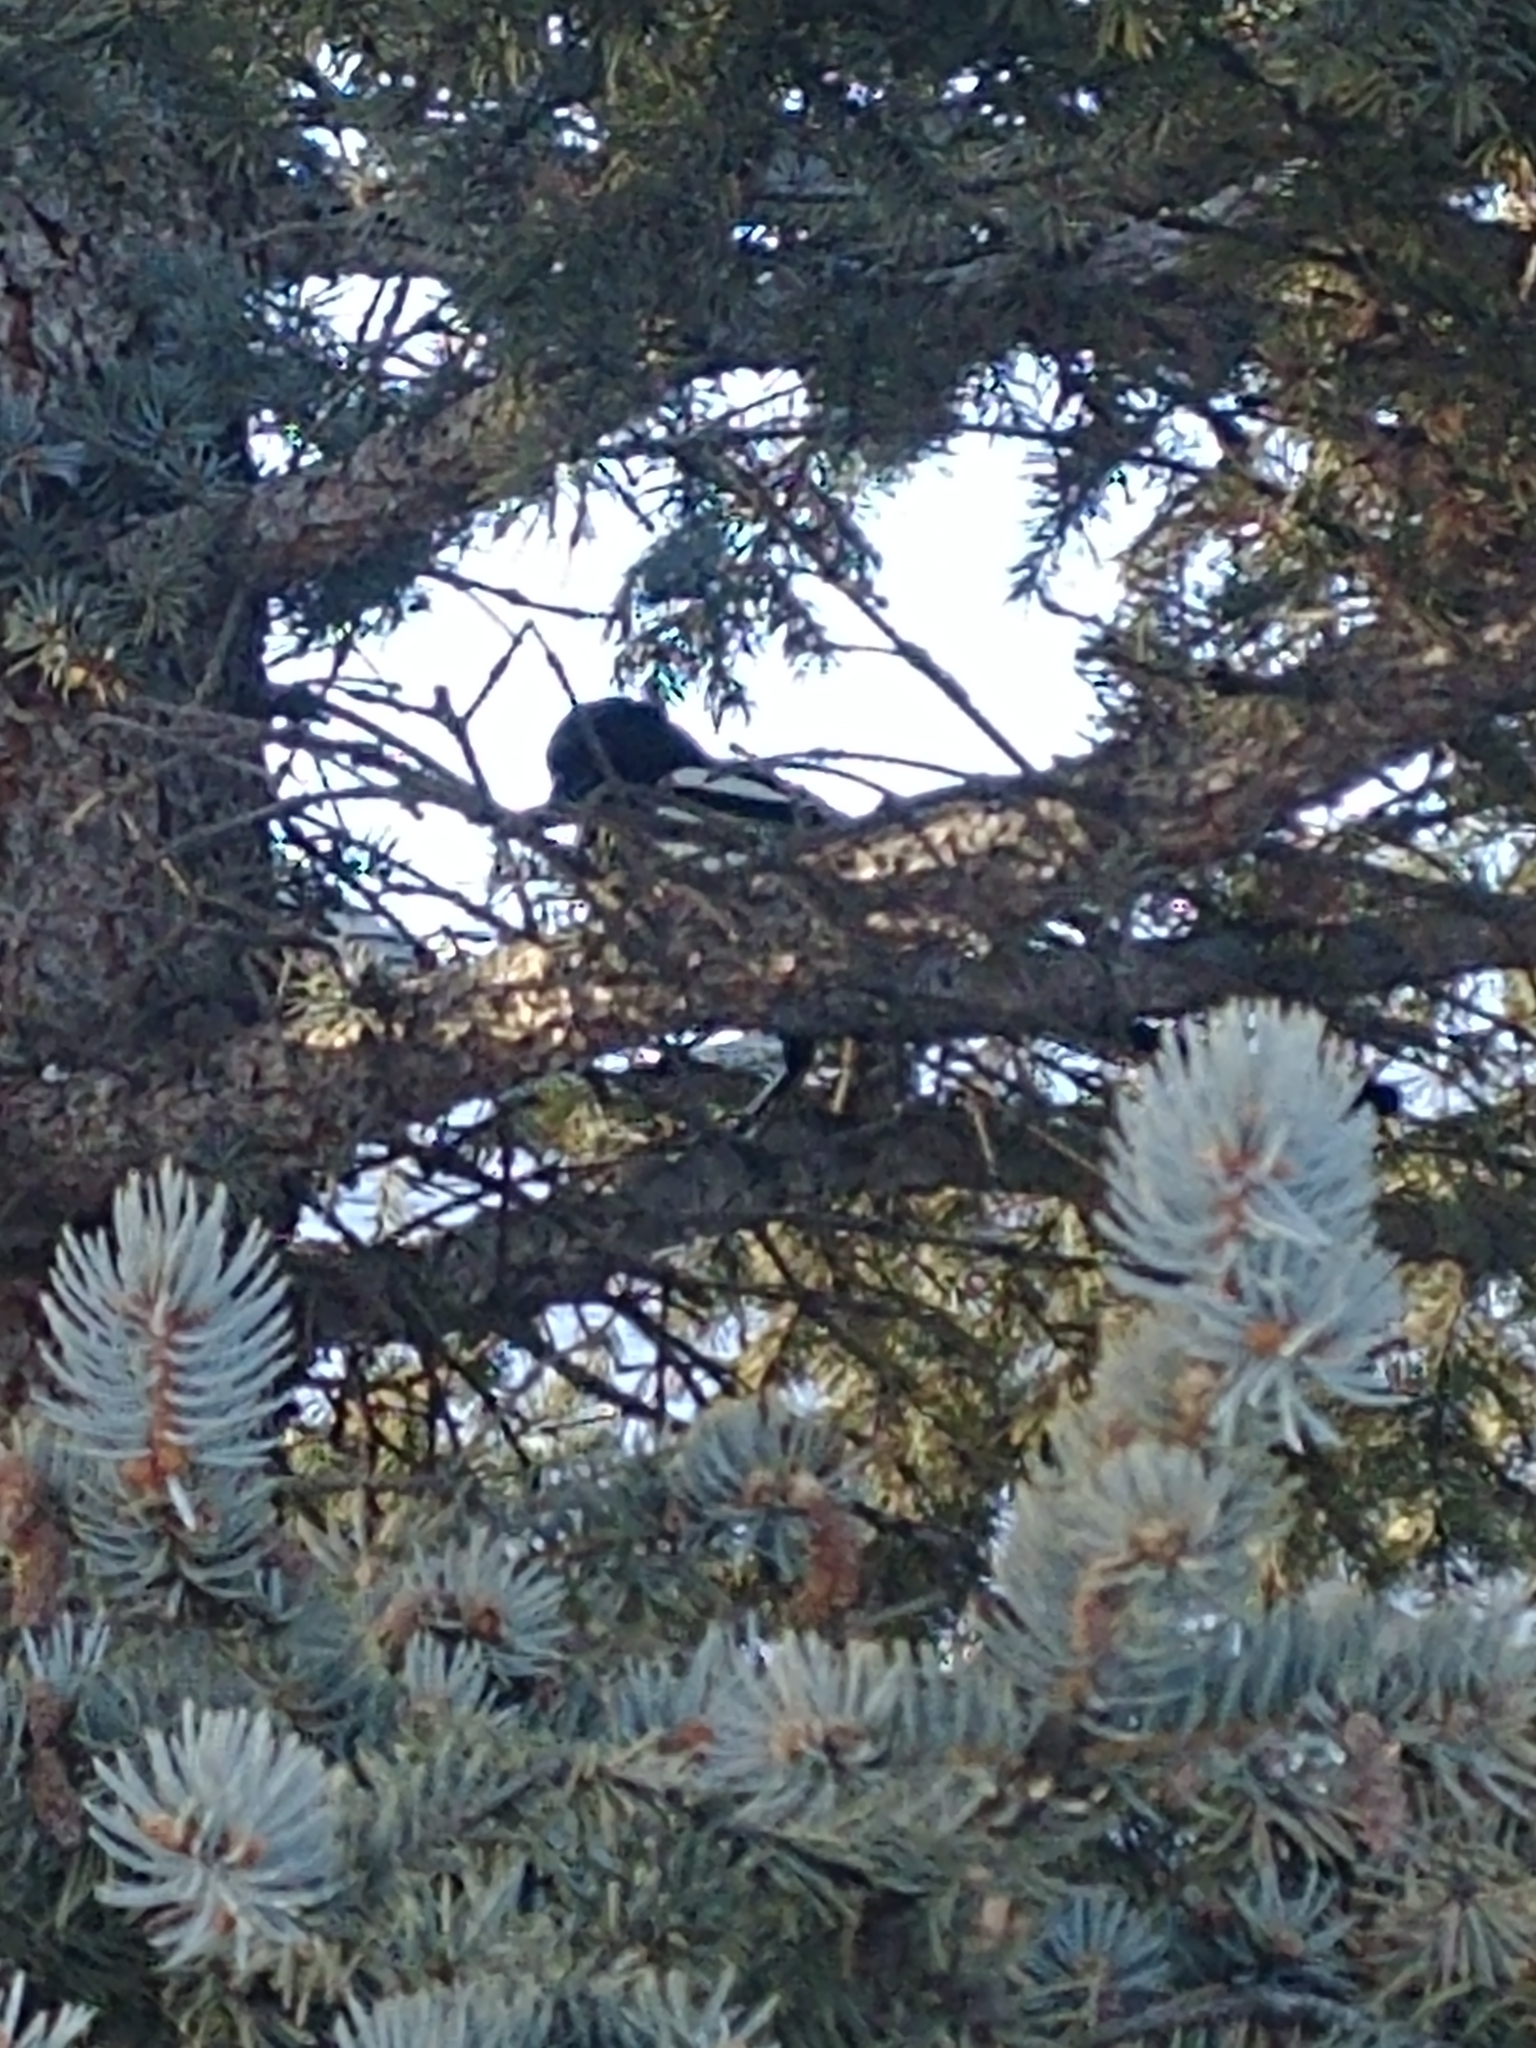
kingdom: Animalia
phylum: Chordata
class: Aves
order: Passeriformes
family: Corvidae
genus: Pica
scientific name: Pica hudsonia
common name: Black-billed magpie
